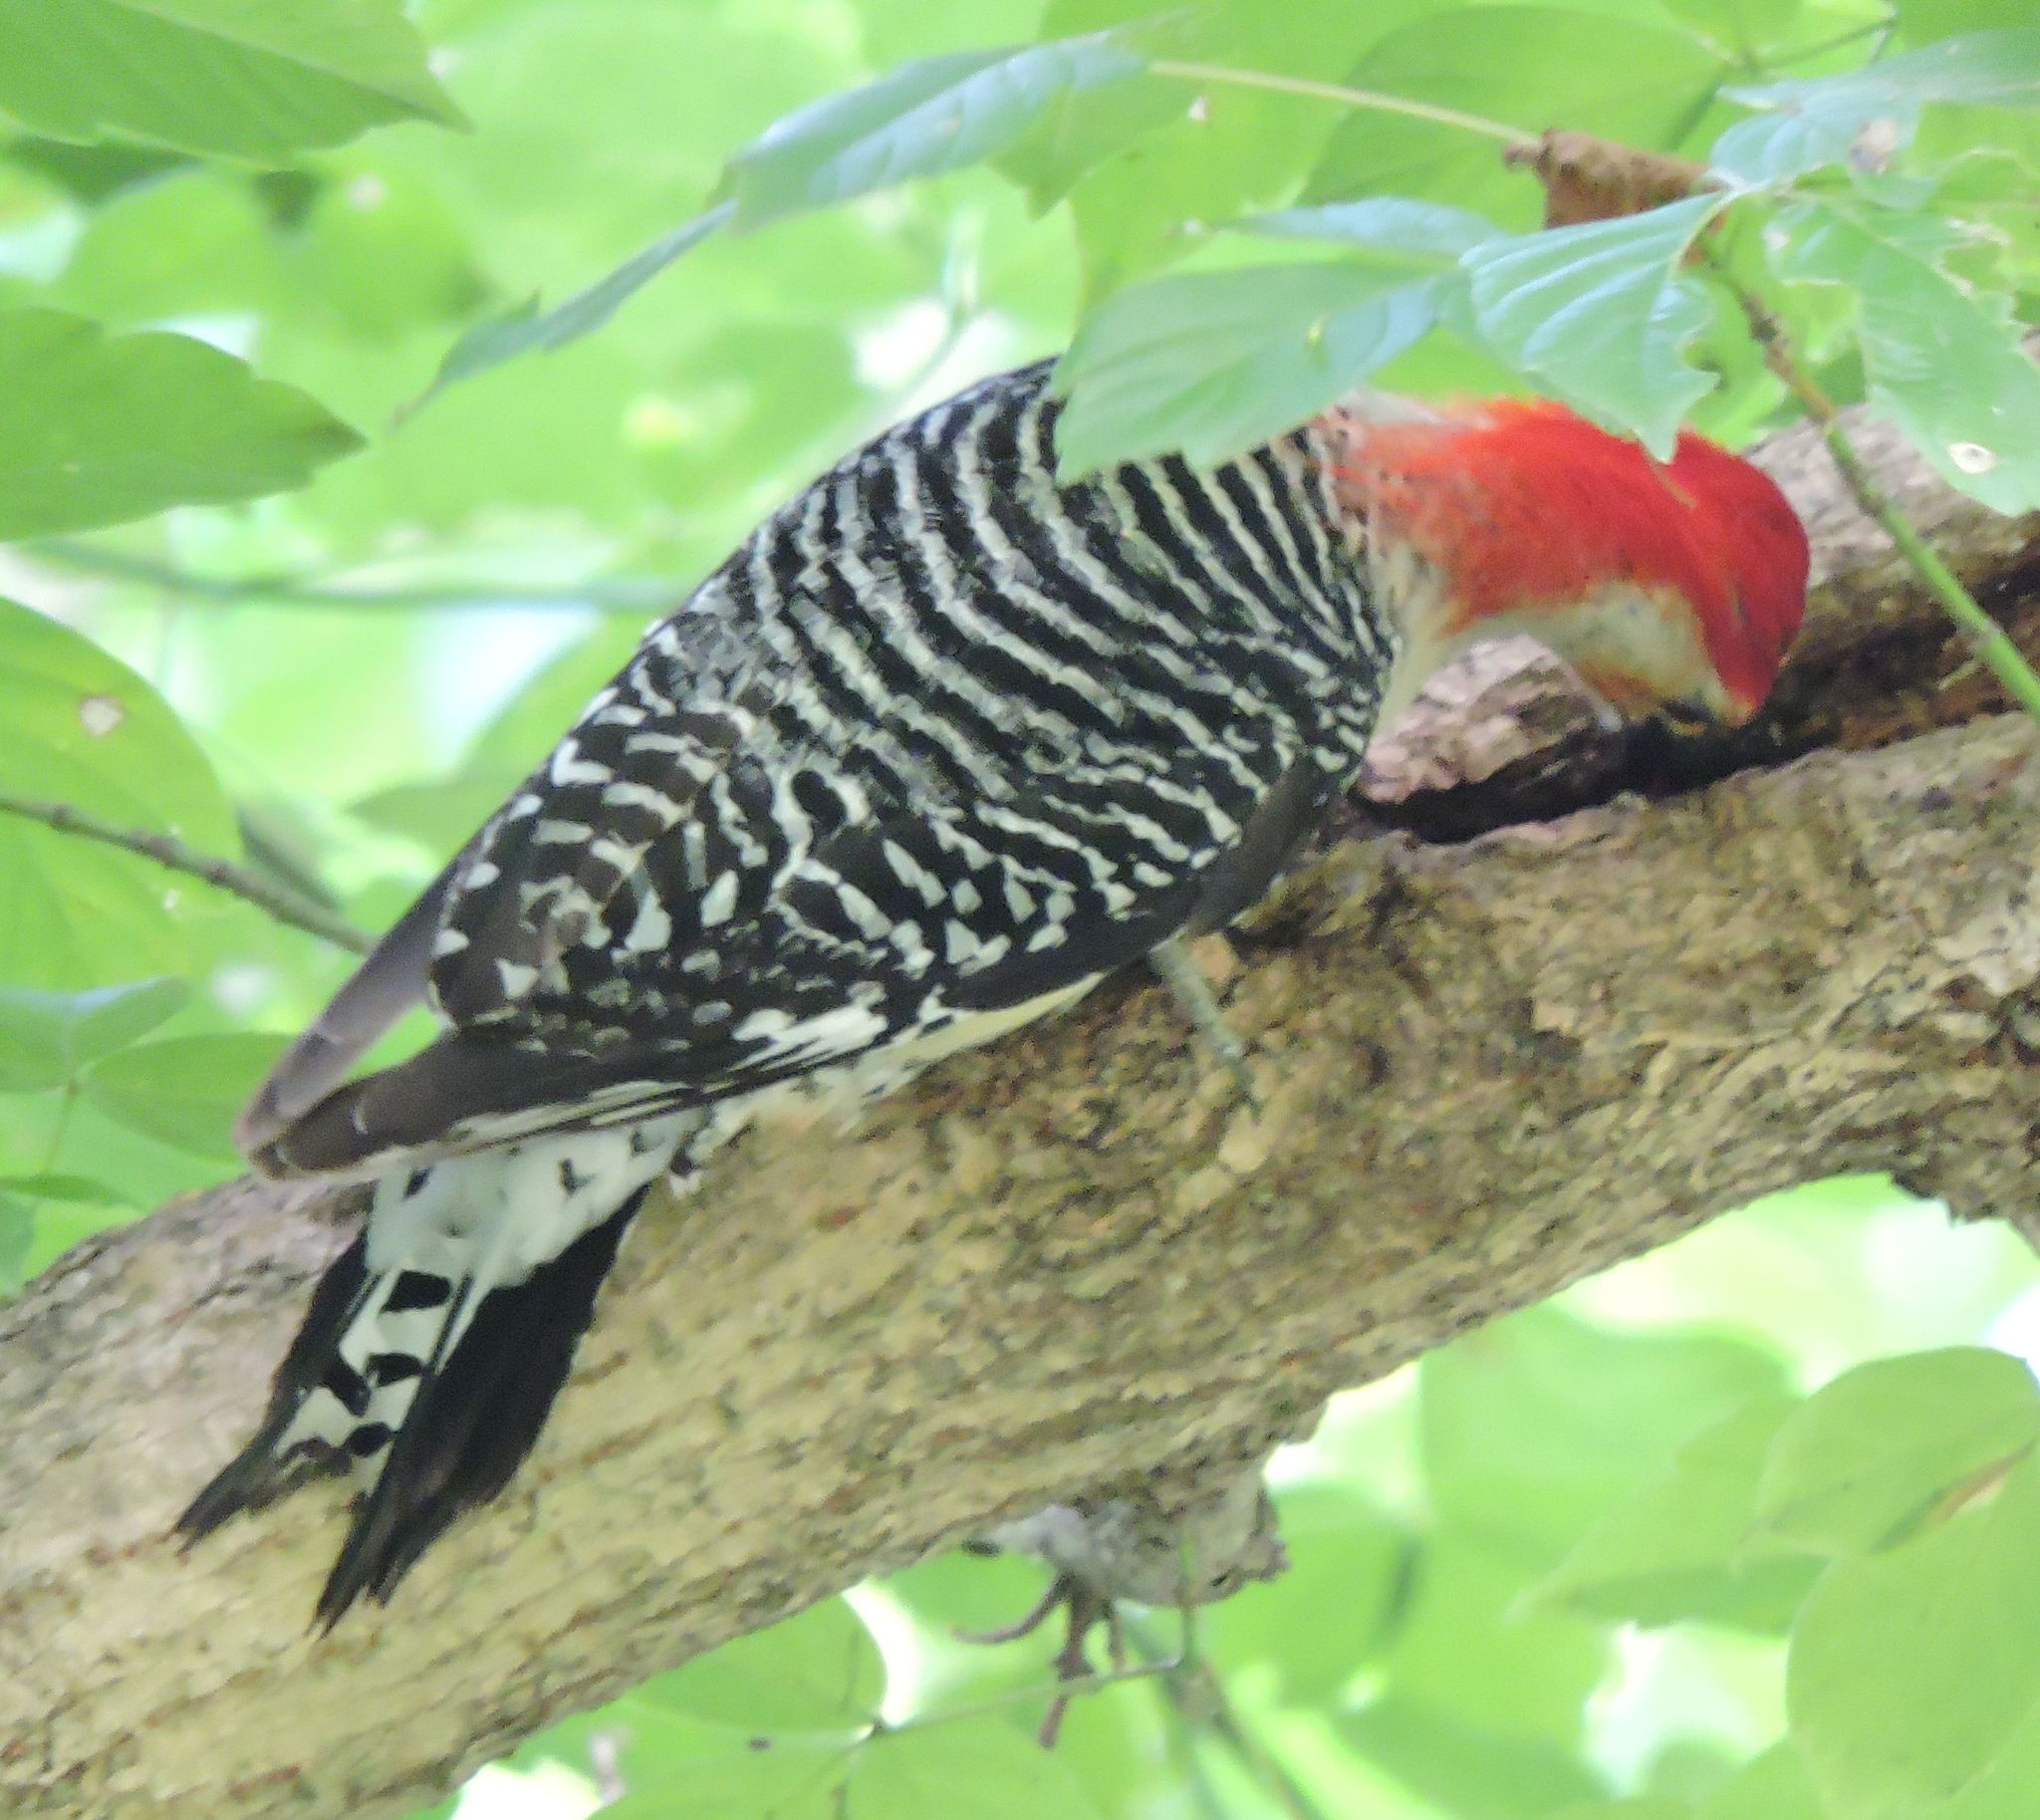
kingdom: Animalia
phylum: Chordata
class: Aves
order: Piciformes
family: Picidae
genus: Melanerpes
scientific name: Melanerpes carolinus
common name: Red-bellied woodpecker
